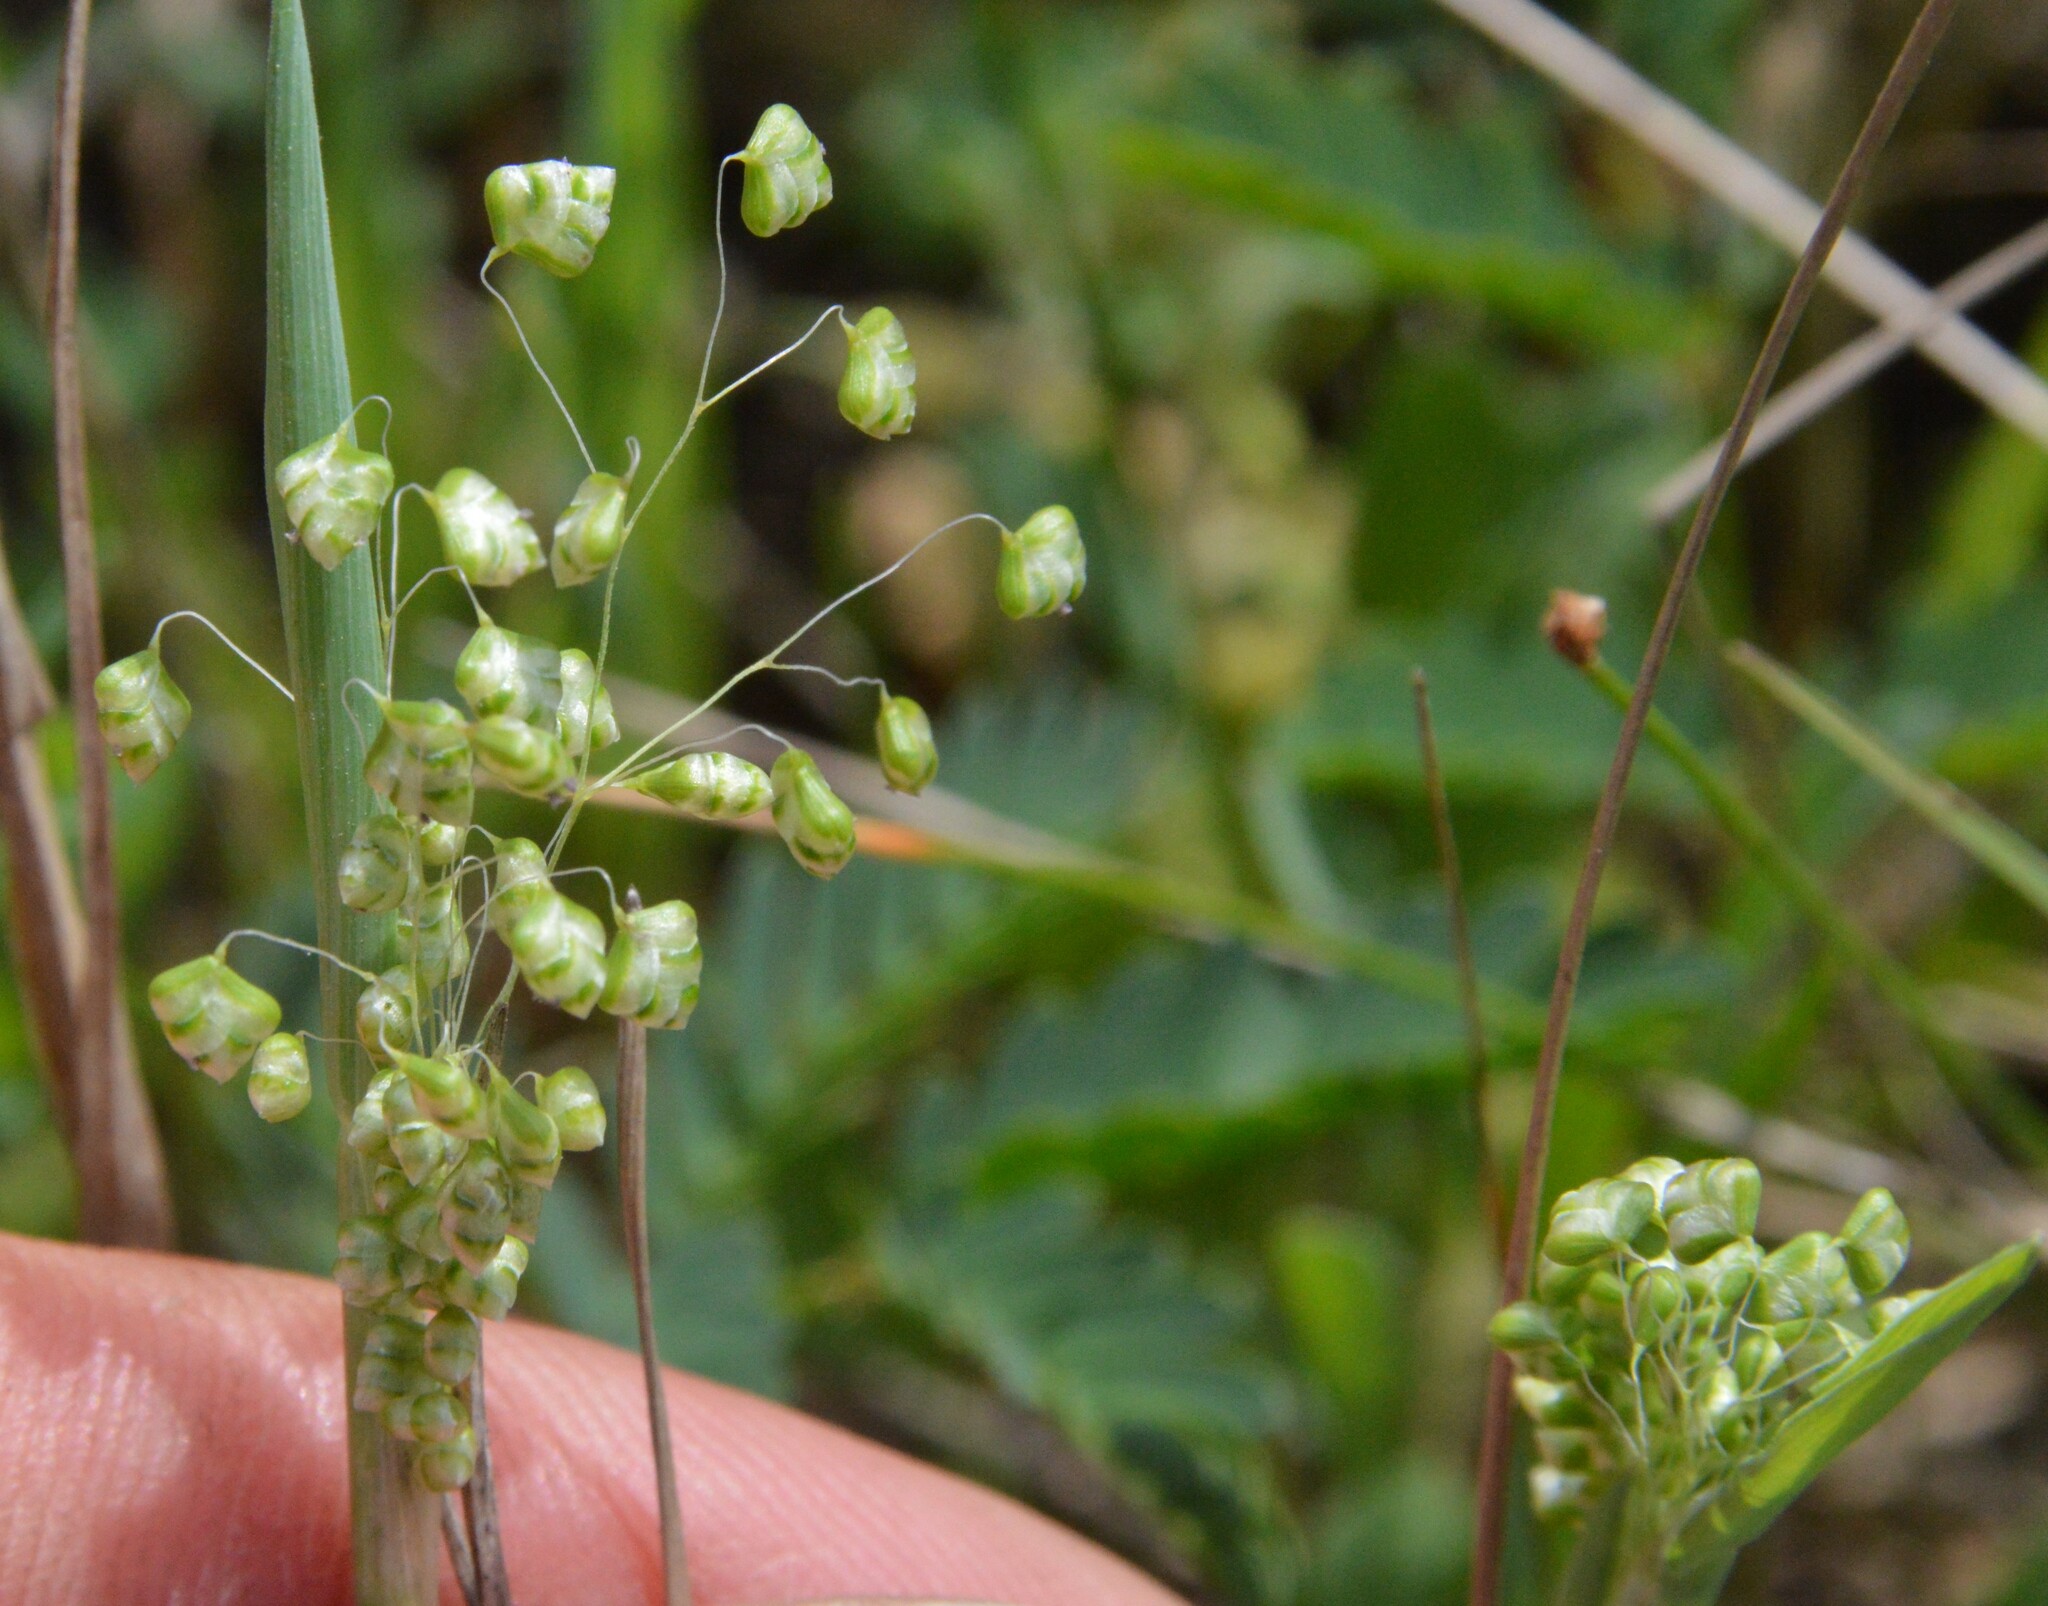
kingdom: Plantae
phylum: Tracheophyta
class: Liliopsida
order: Poales
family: Poaceae
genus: Briza
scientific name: Briza minor
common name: Lesser quaking-grass
